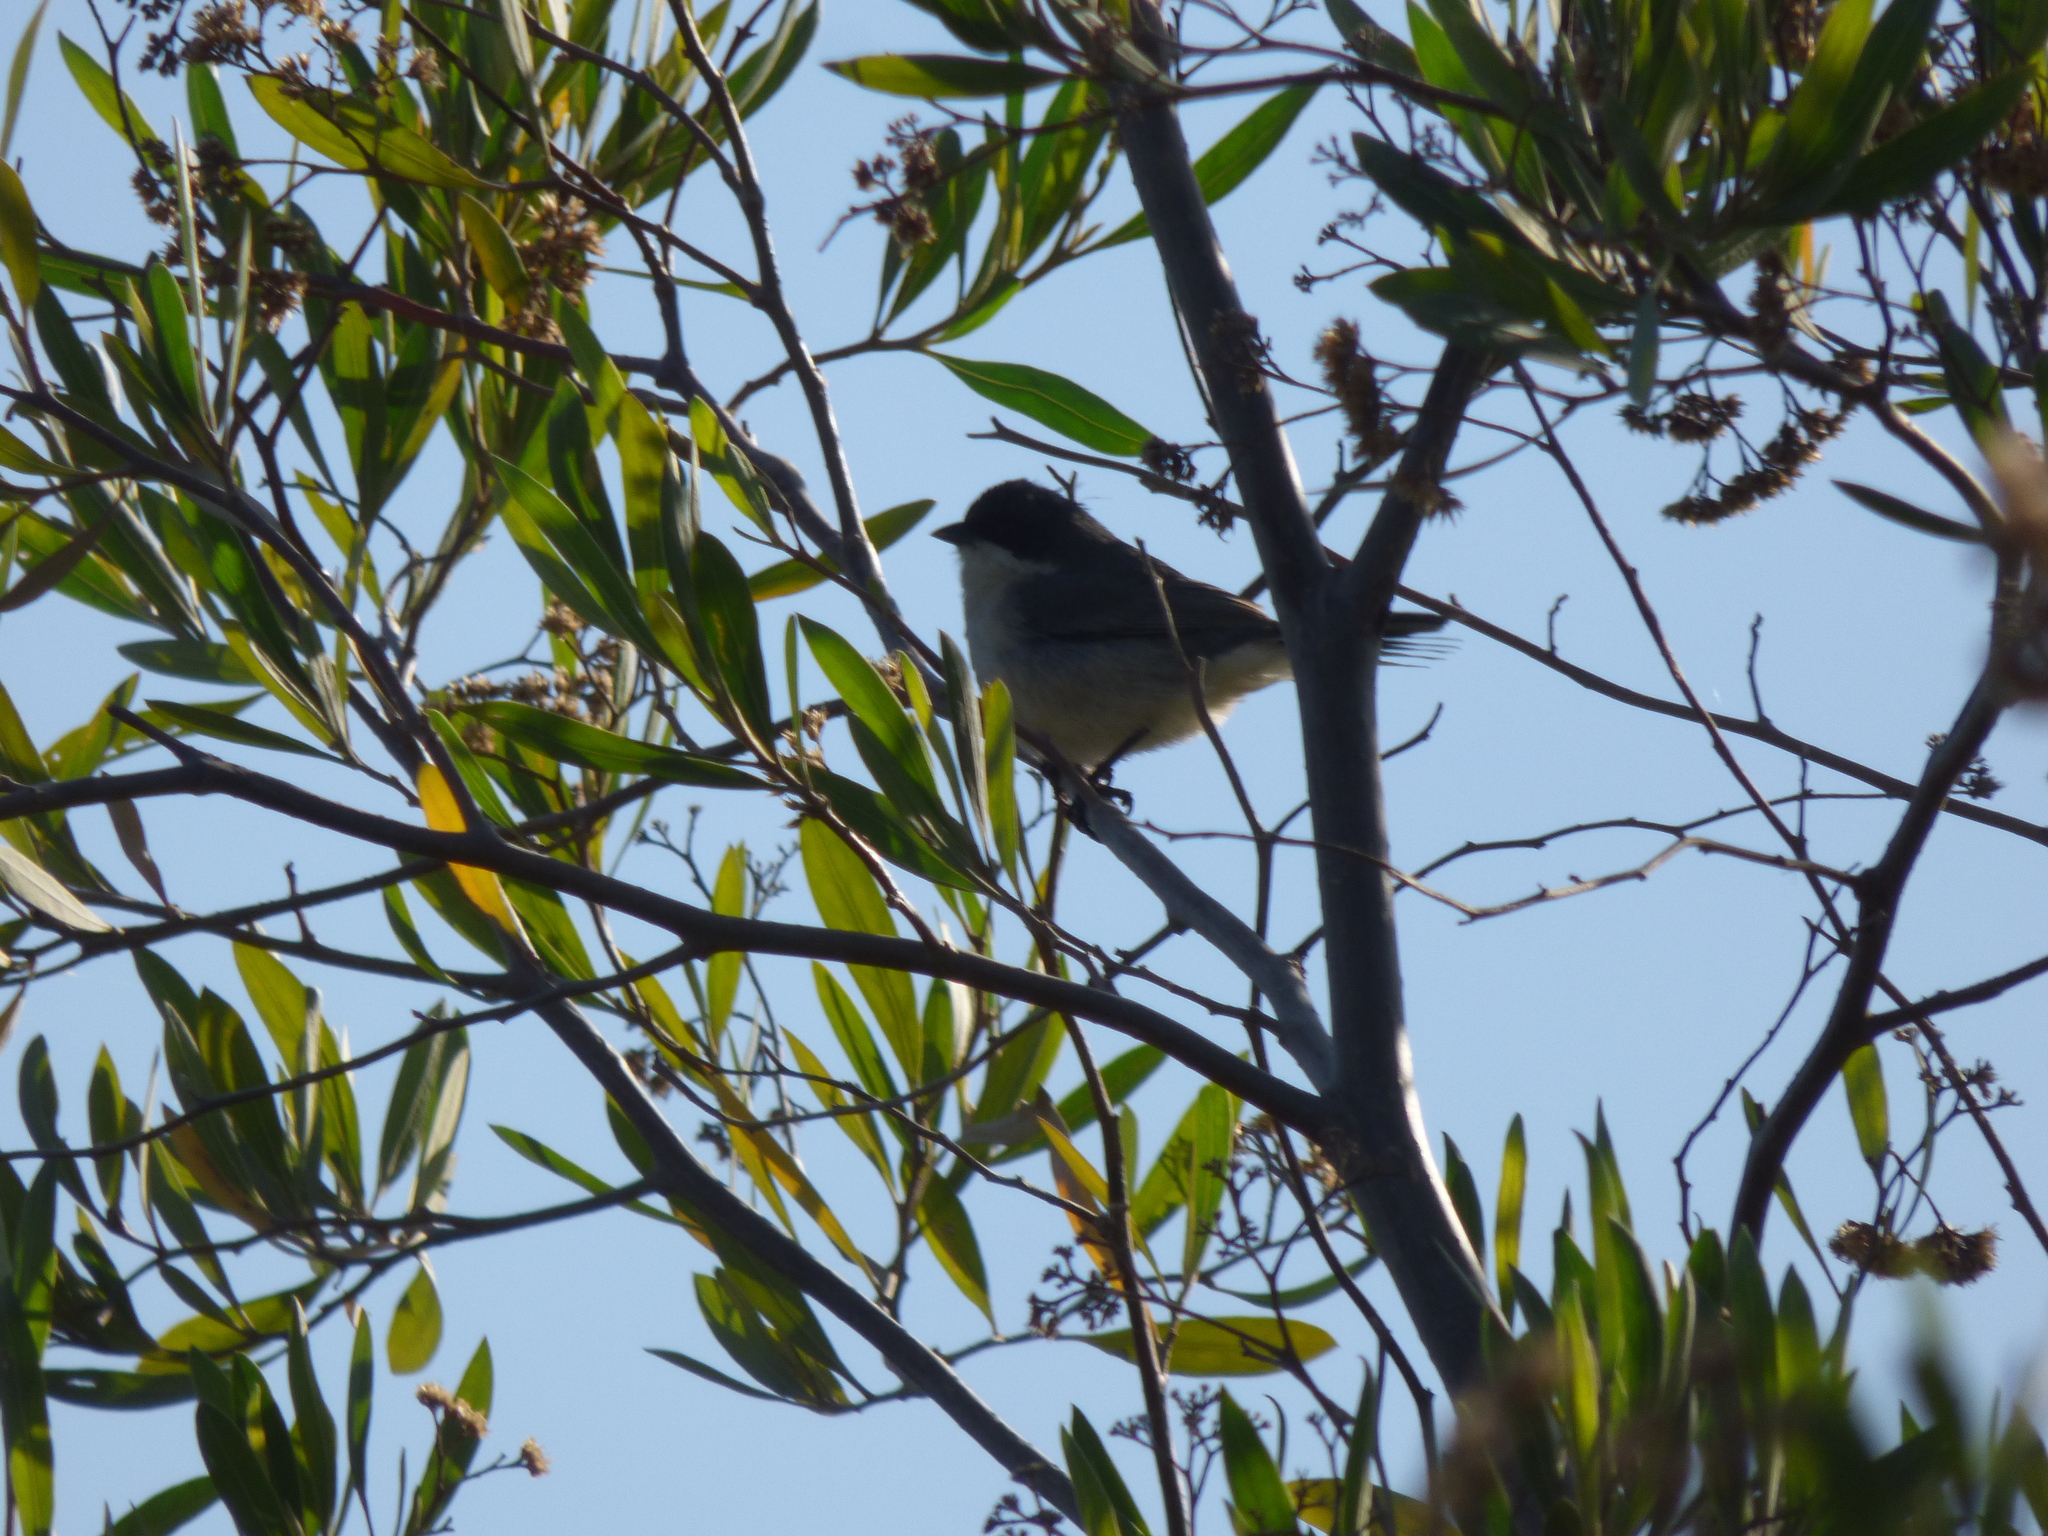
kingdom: Animalia
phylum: Chordata
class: Aves
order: Passeriformes
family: Thraupidae
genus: Microspingus
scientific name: Microspingus melanoleucus
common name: Black-capped warbling-finch
